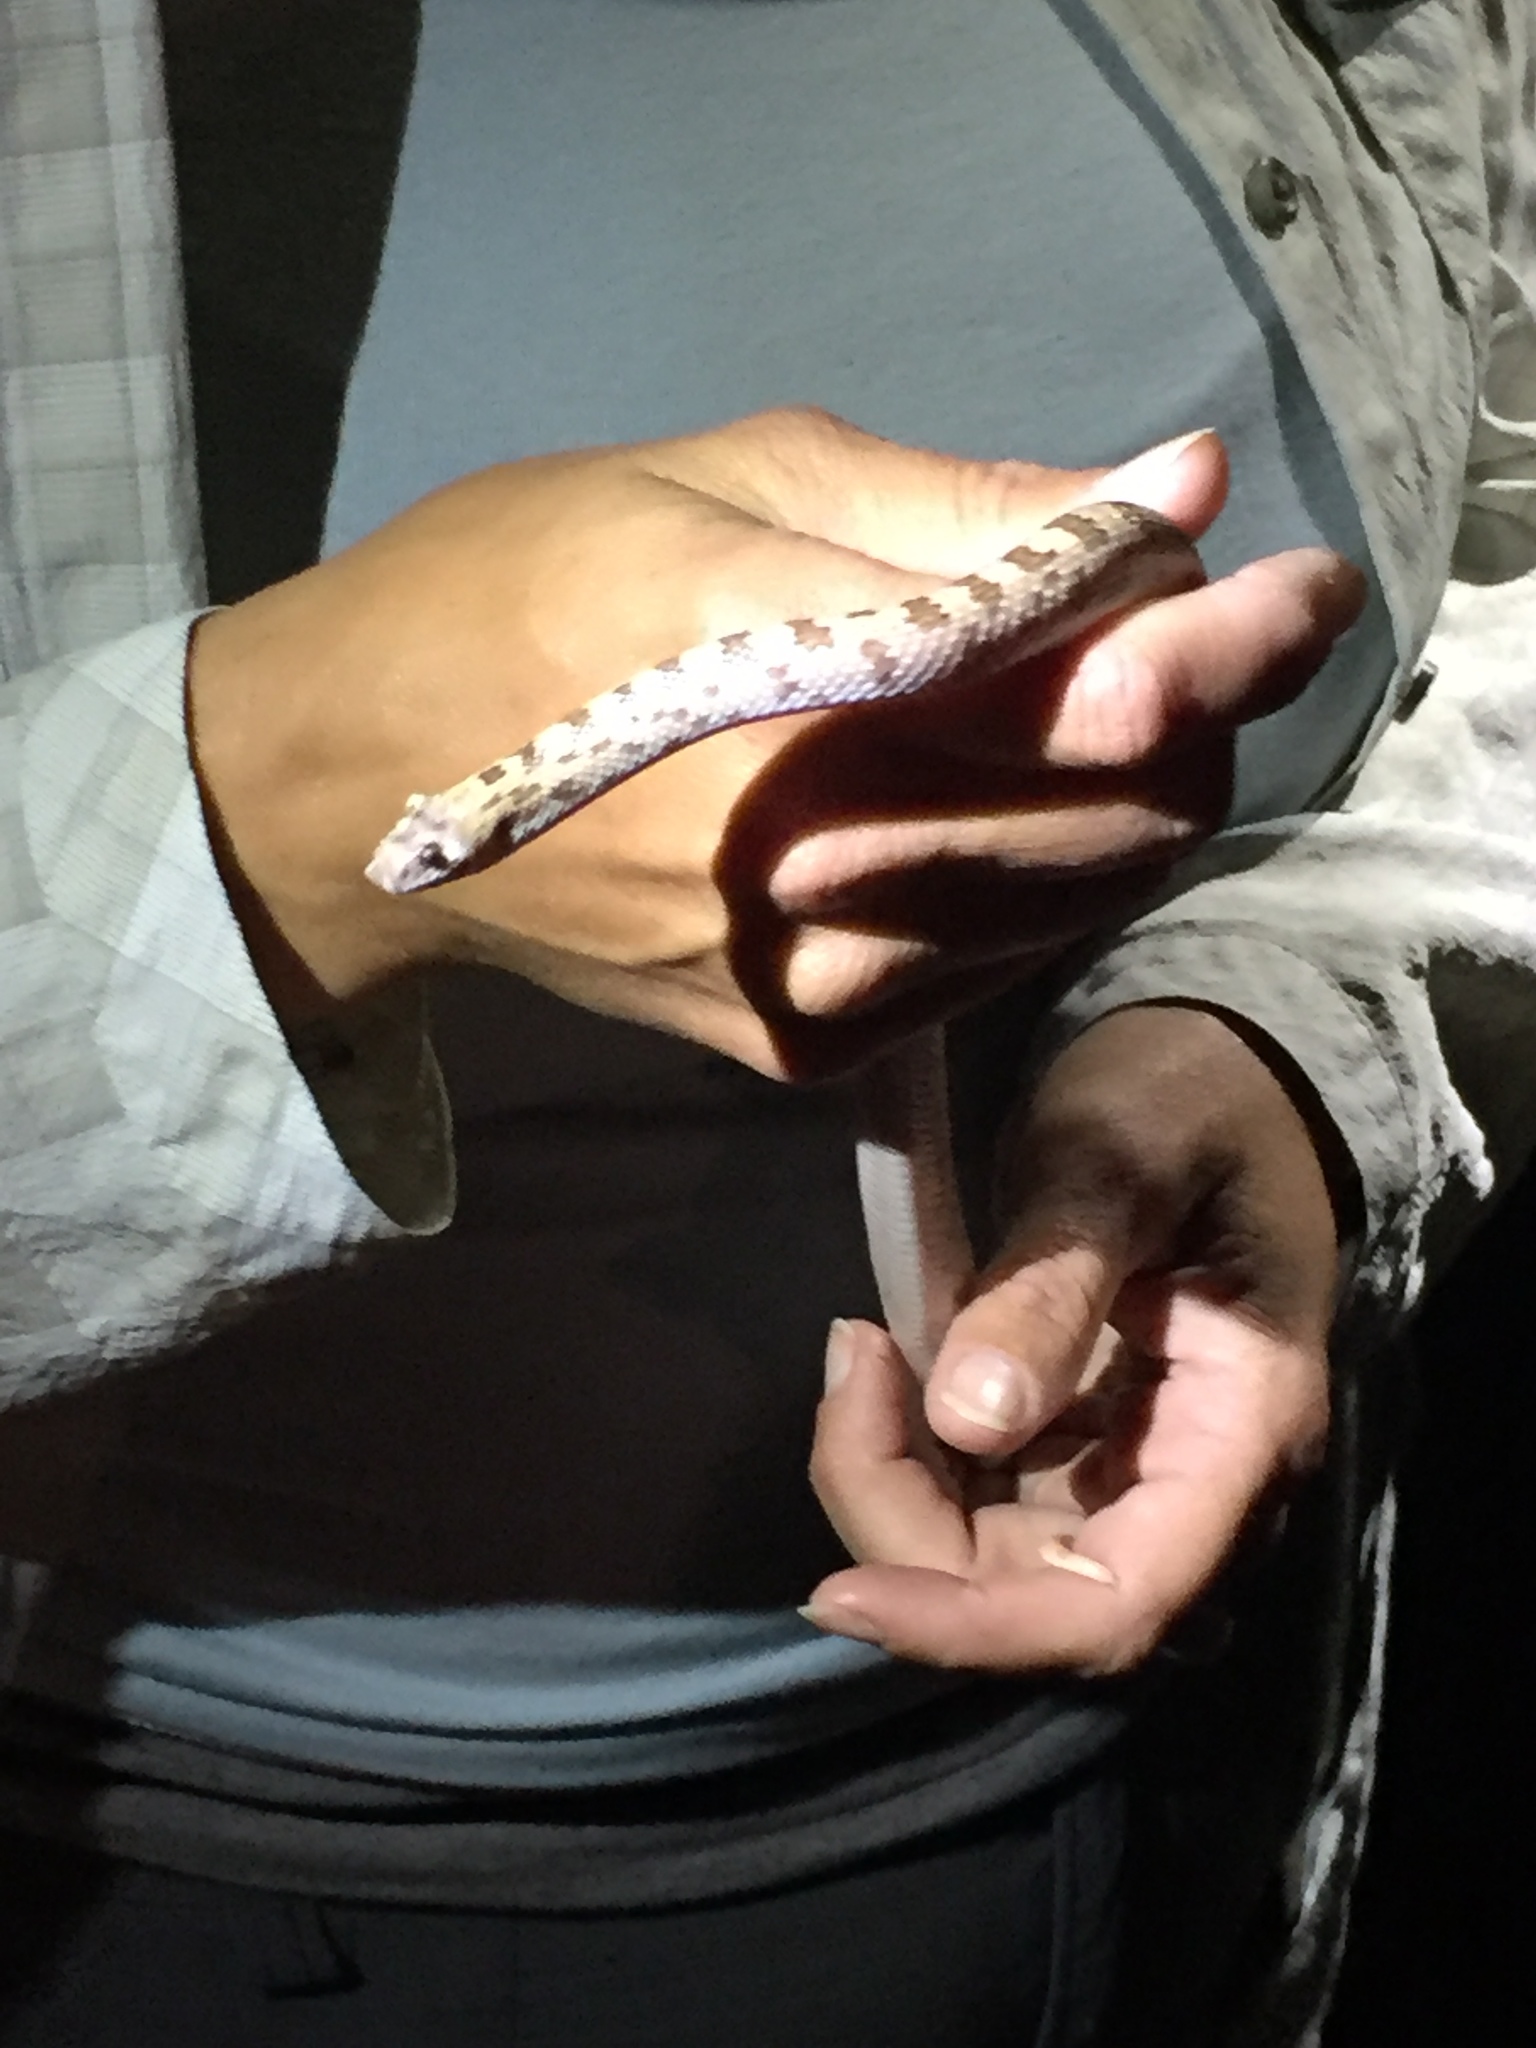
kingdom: Animalia
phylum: Chordata
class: Squamata
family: Colubridae
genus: Phyllorhynchus
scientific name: Phyllorhynchus decurtatus
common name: Spotted leafnose snake
